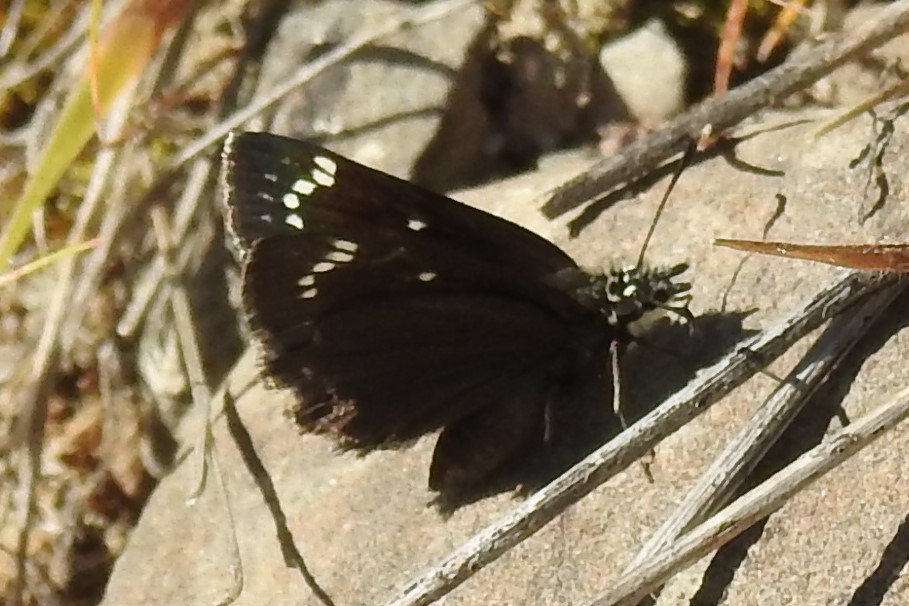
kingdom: Animalia
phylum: Arthropoda
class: Insecta
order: Lepidoptera
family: Hesperiidae
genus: Pholisora
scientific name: Pholisora catullus
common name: Common sootywing
